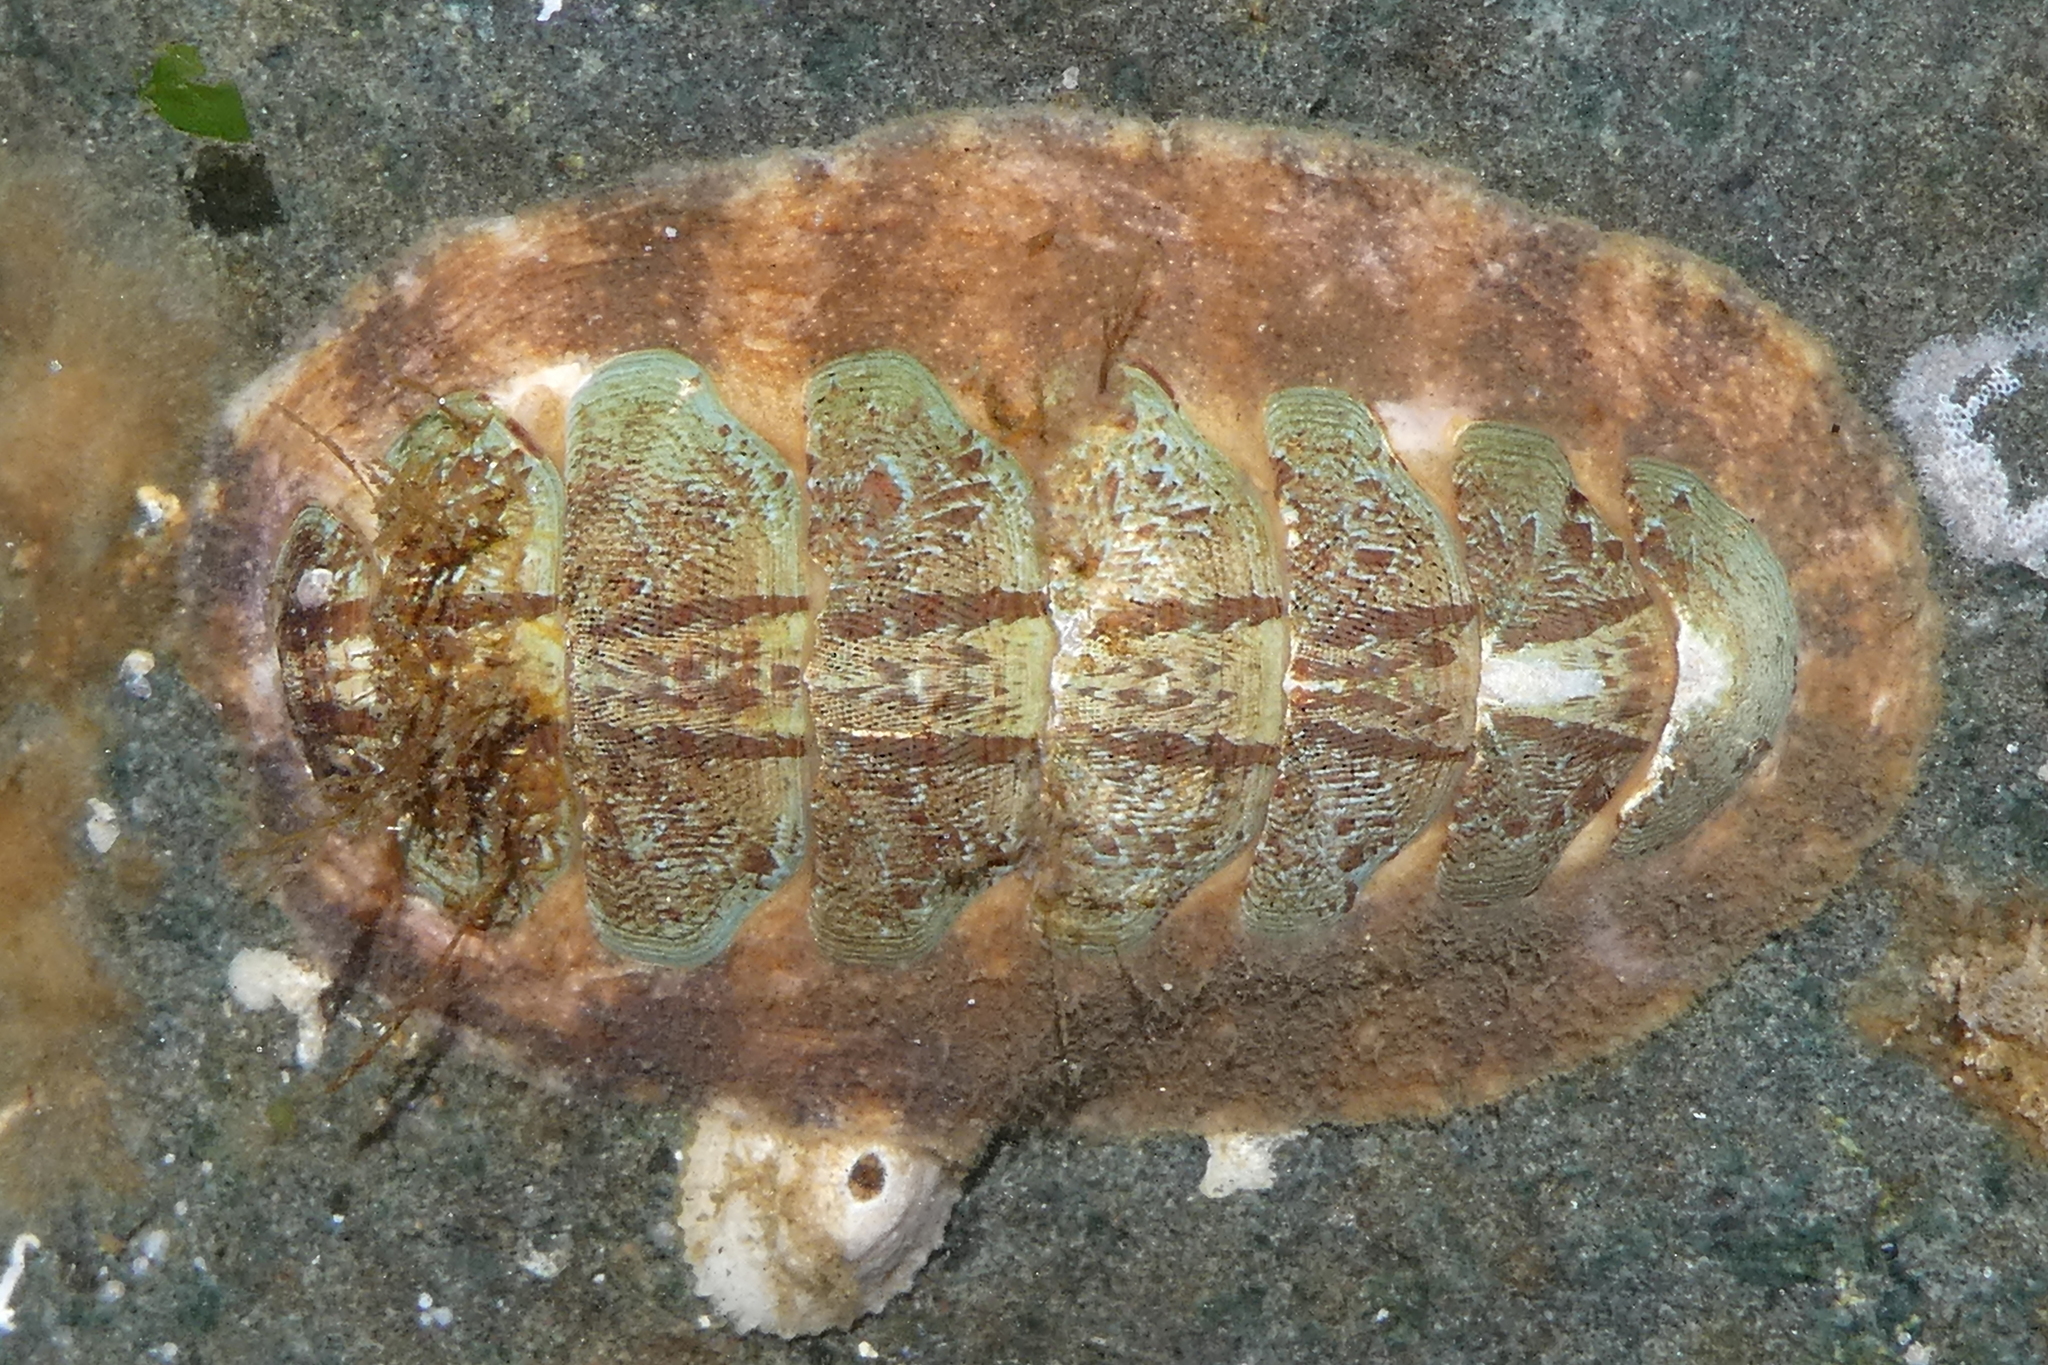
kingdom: Animalia
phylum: Mollusca
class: Polyplacophora
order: Chitonida
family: Mopaliidae
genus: Mopalia
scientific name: Mopalia spectabilis
